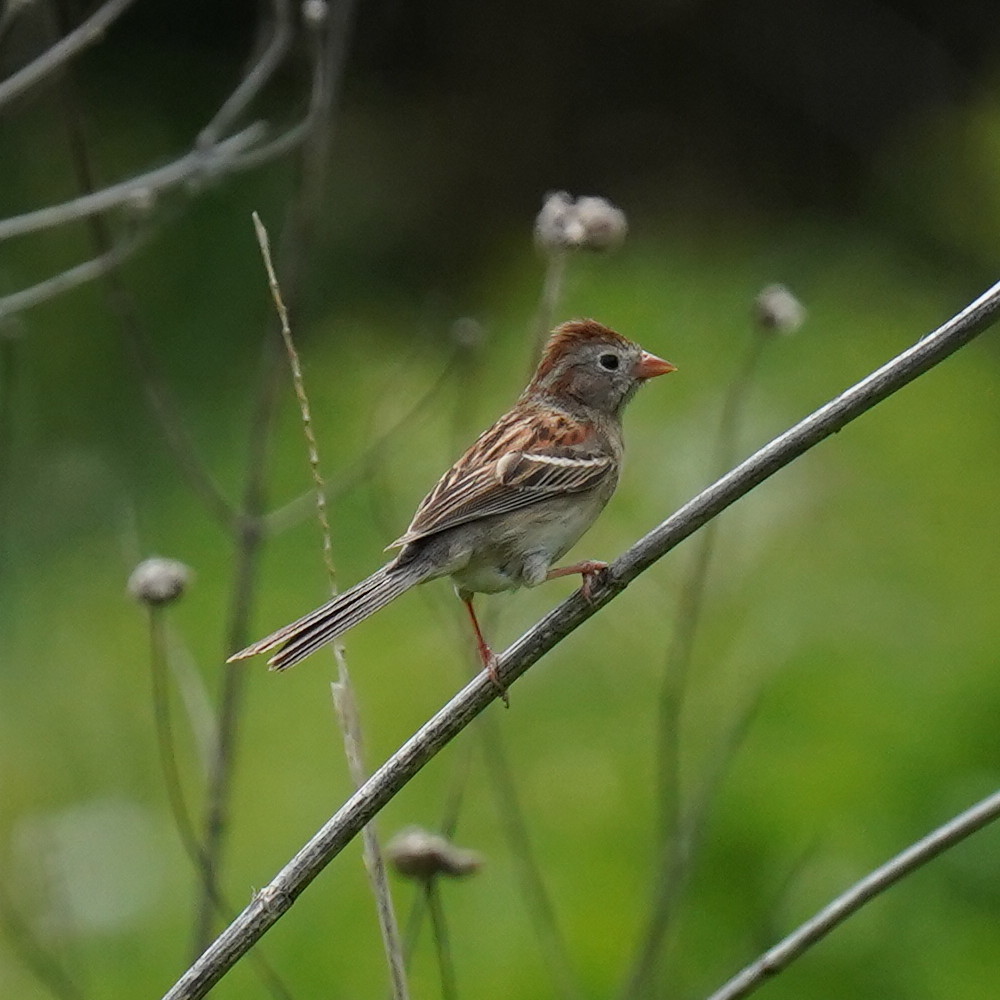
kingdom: Animalia
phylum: Chordata
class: Aves
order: Passeriformes
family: Passerellidae
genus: Spizella
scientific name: Spizella pusilla
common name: Field sparrow
